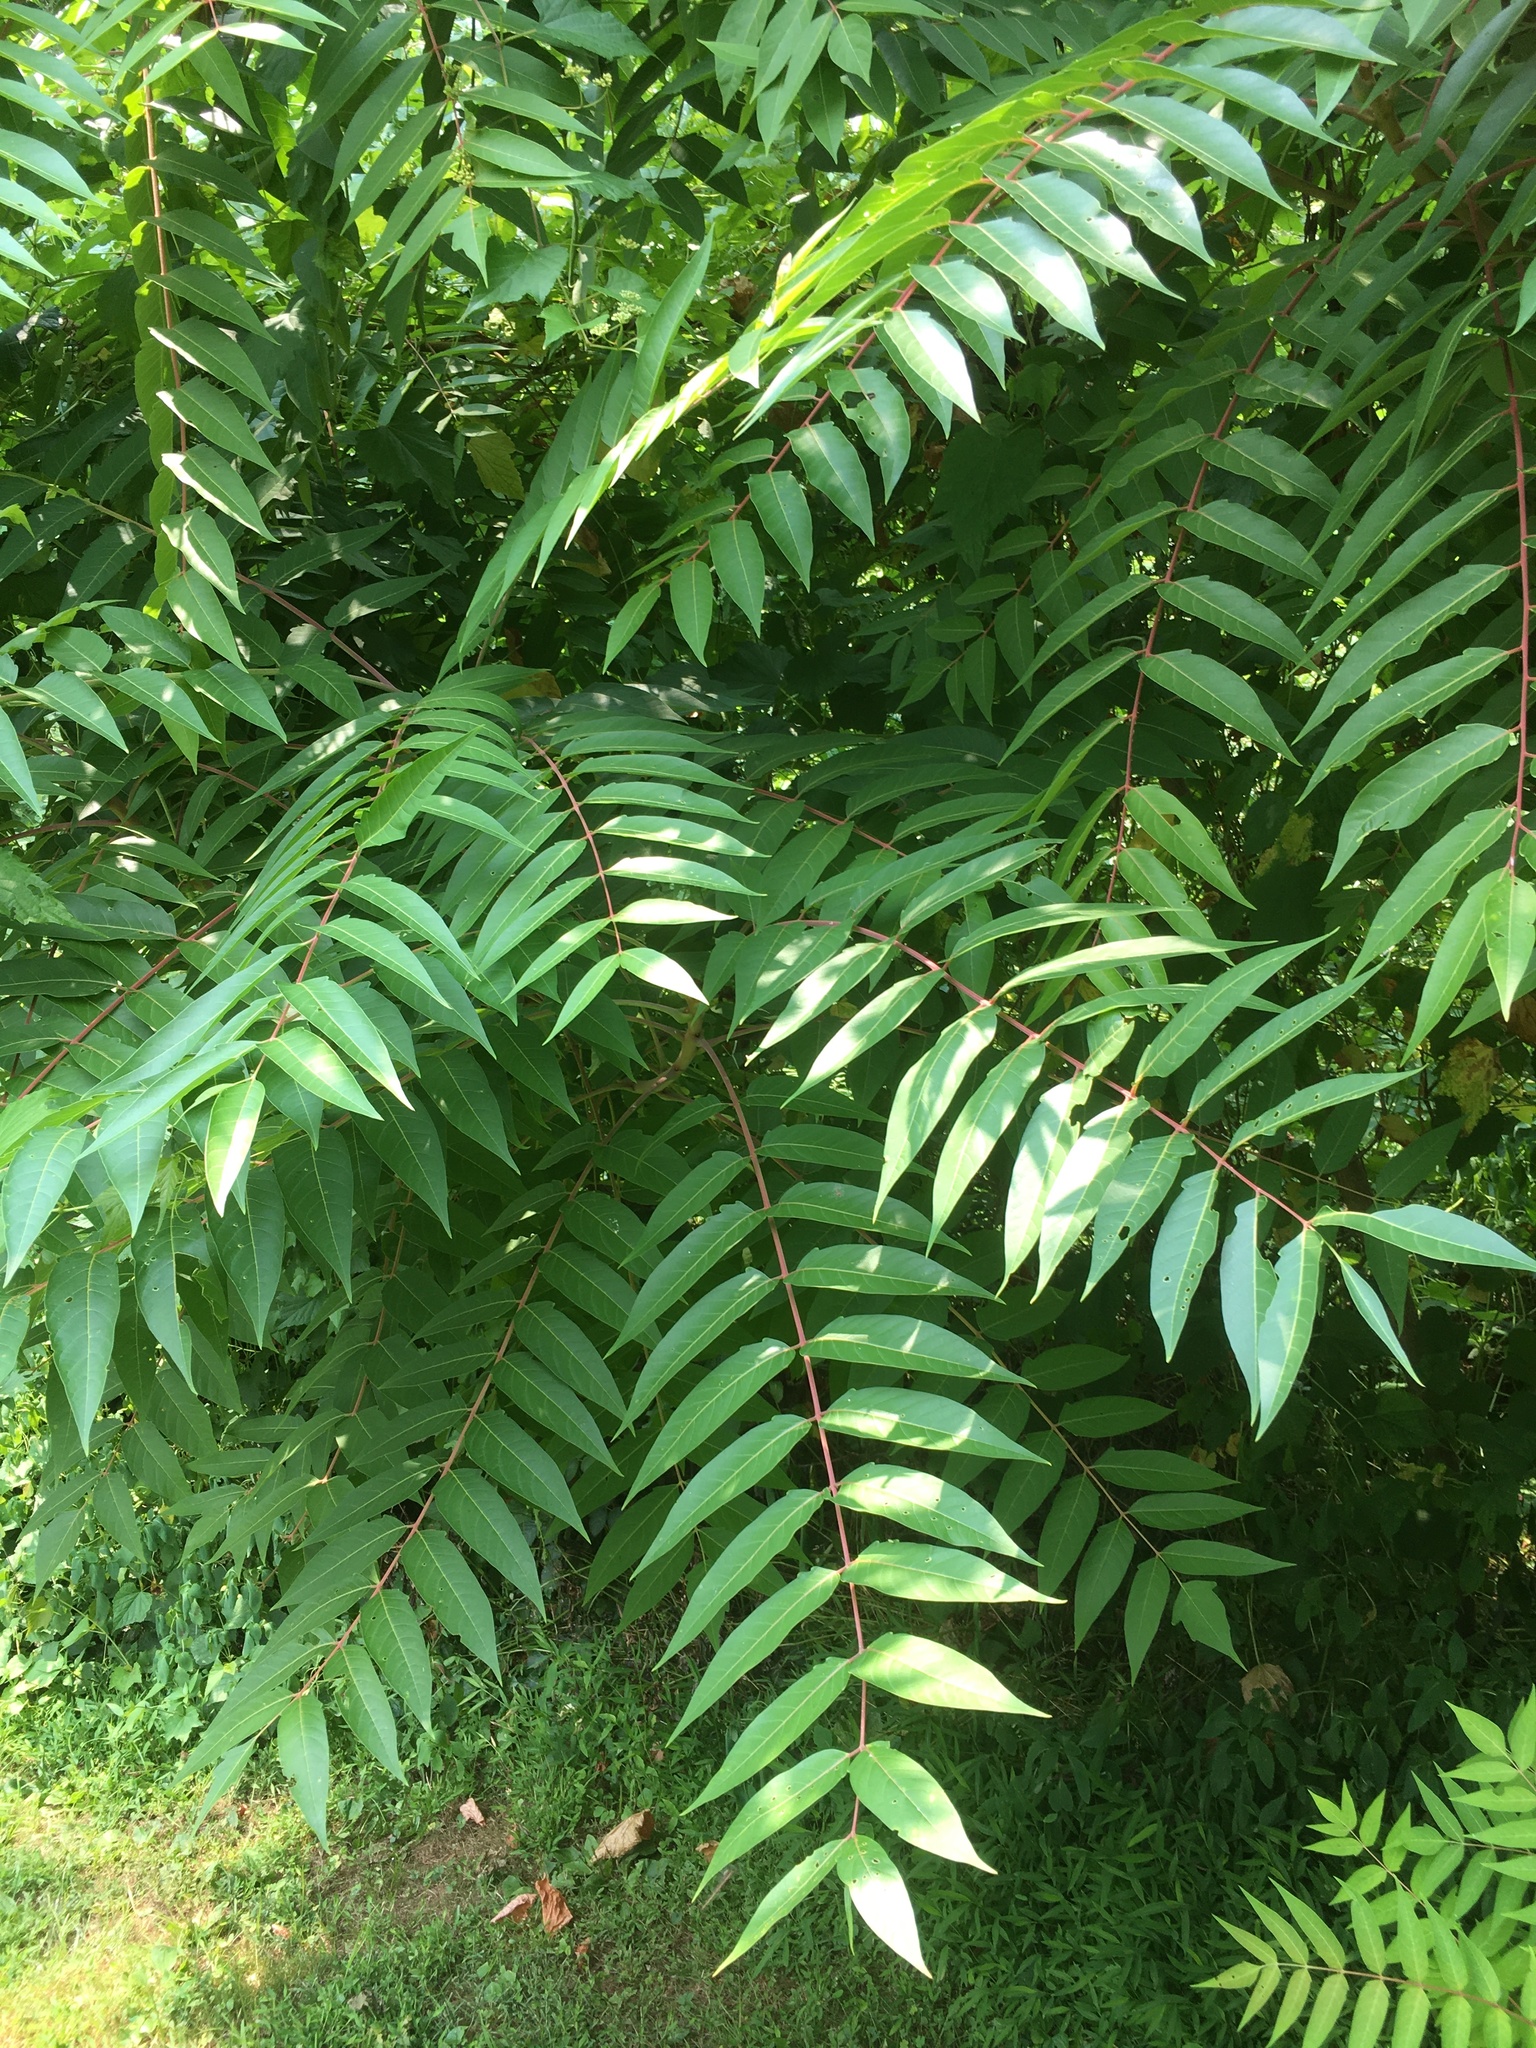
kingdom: Plantae
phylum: Tracheophyta
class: Magnoliopsida
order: Sapindales
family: Simaroubaceae
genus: Ailanthus
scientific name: Ailanthus altissima
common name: Tree-of-heaven
